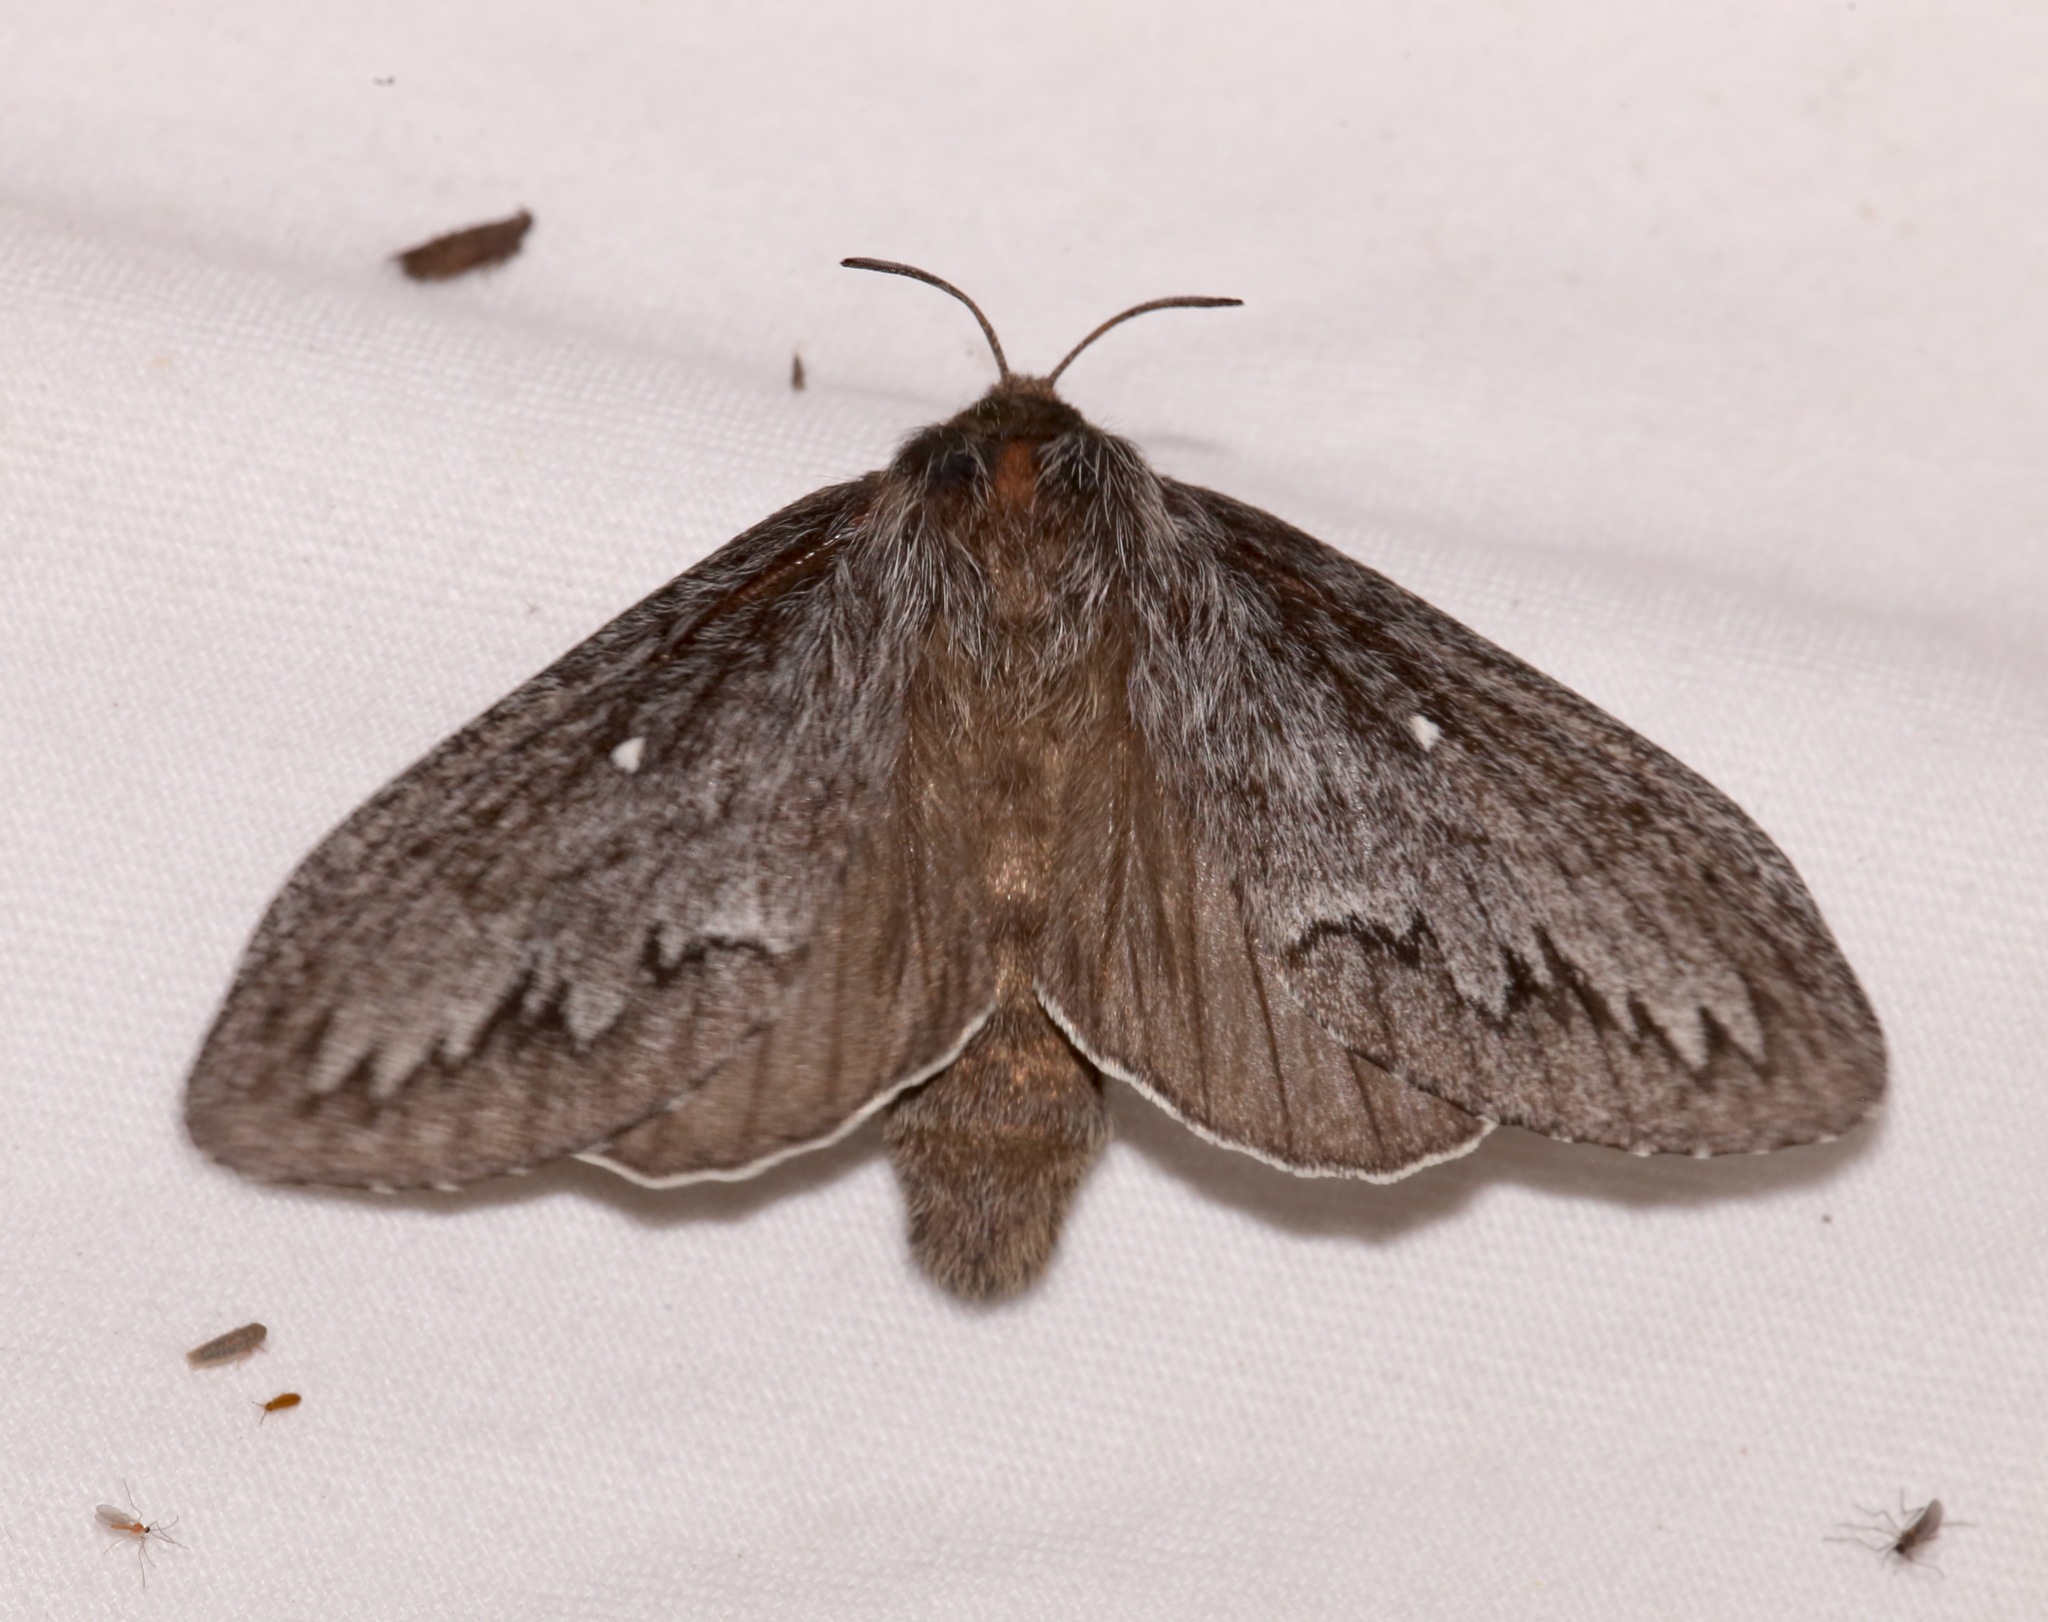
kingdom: Animalia
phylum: Arthropoda
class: Insecta
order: Lepidoptera
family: Lasiocampidae
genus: Gloveria
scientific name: Gloveria arizonensis
